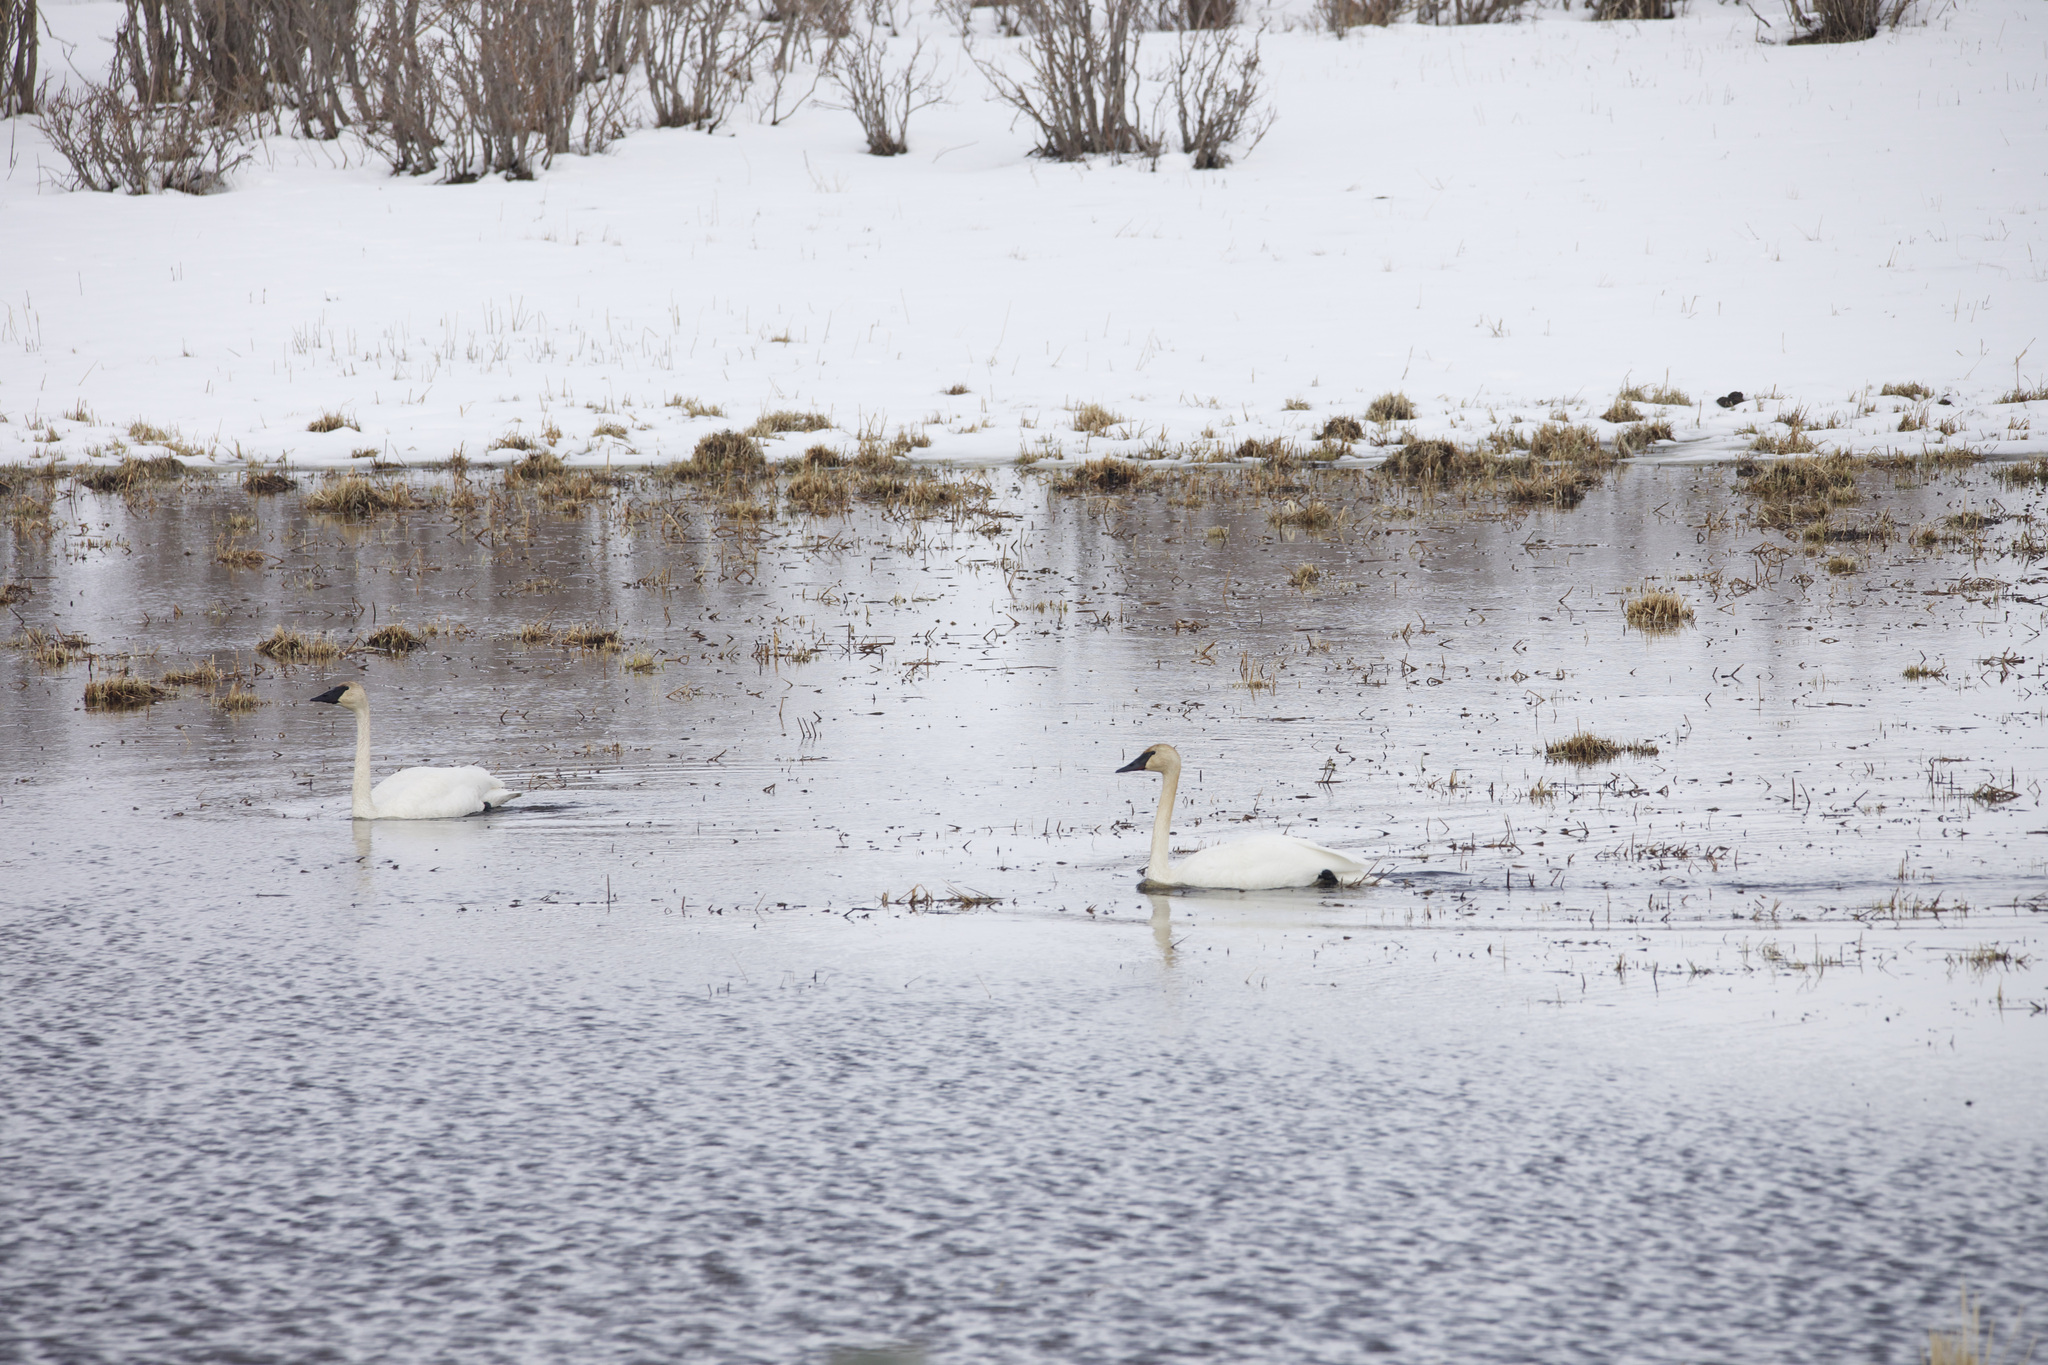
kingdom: Animalia
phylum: Chordata
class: Aves
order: Anseriformes
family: Anatidae
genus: Cygnus
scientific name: Cygnus buccinator
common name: Trumpeter swan
